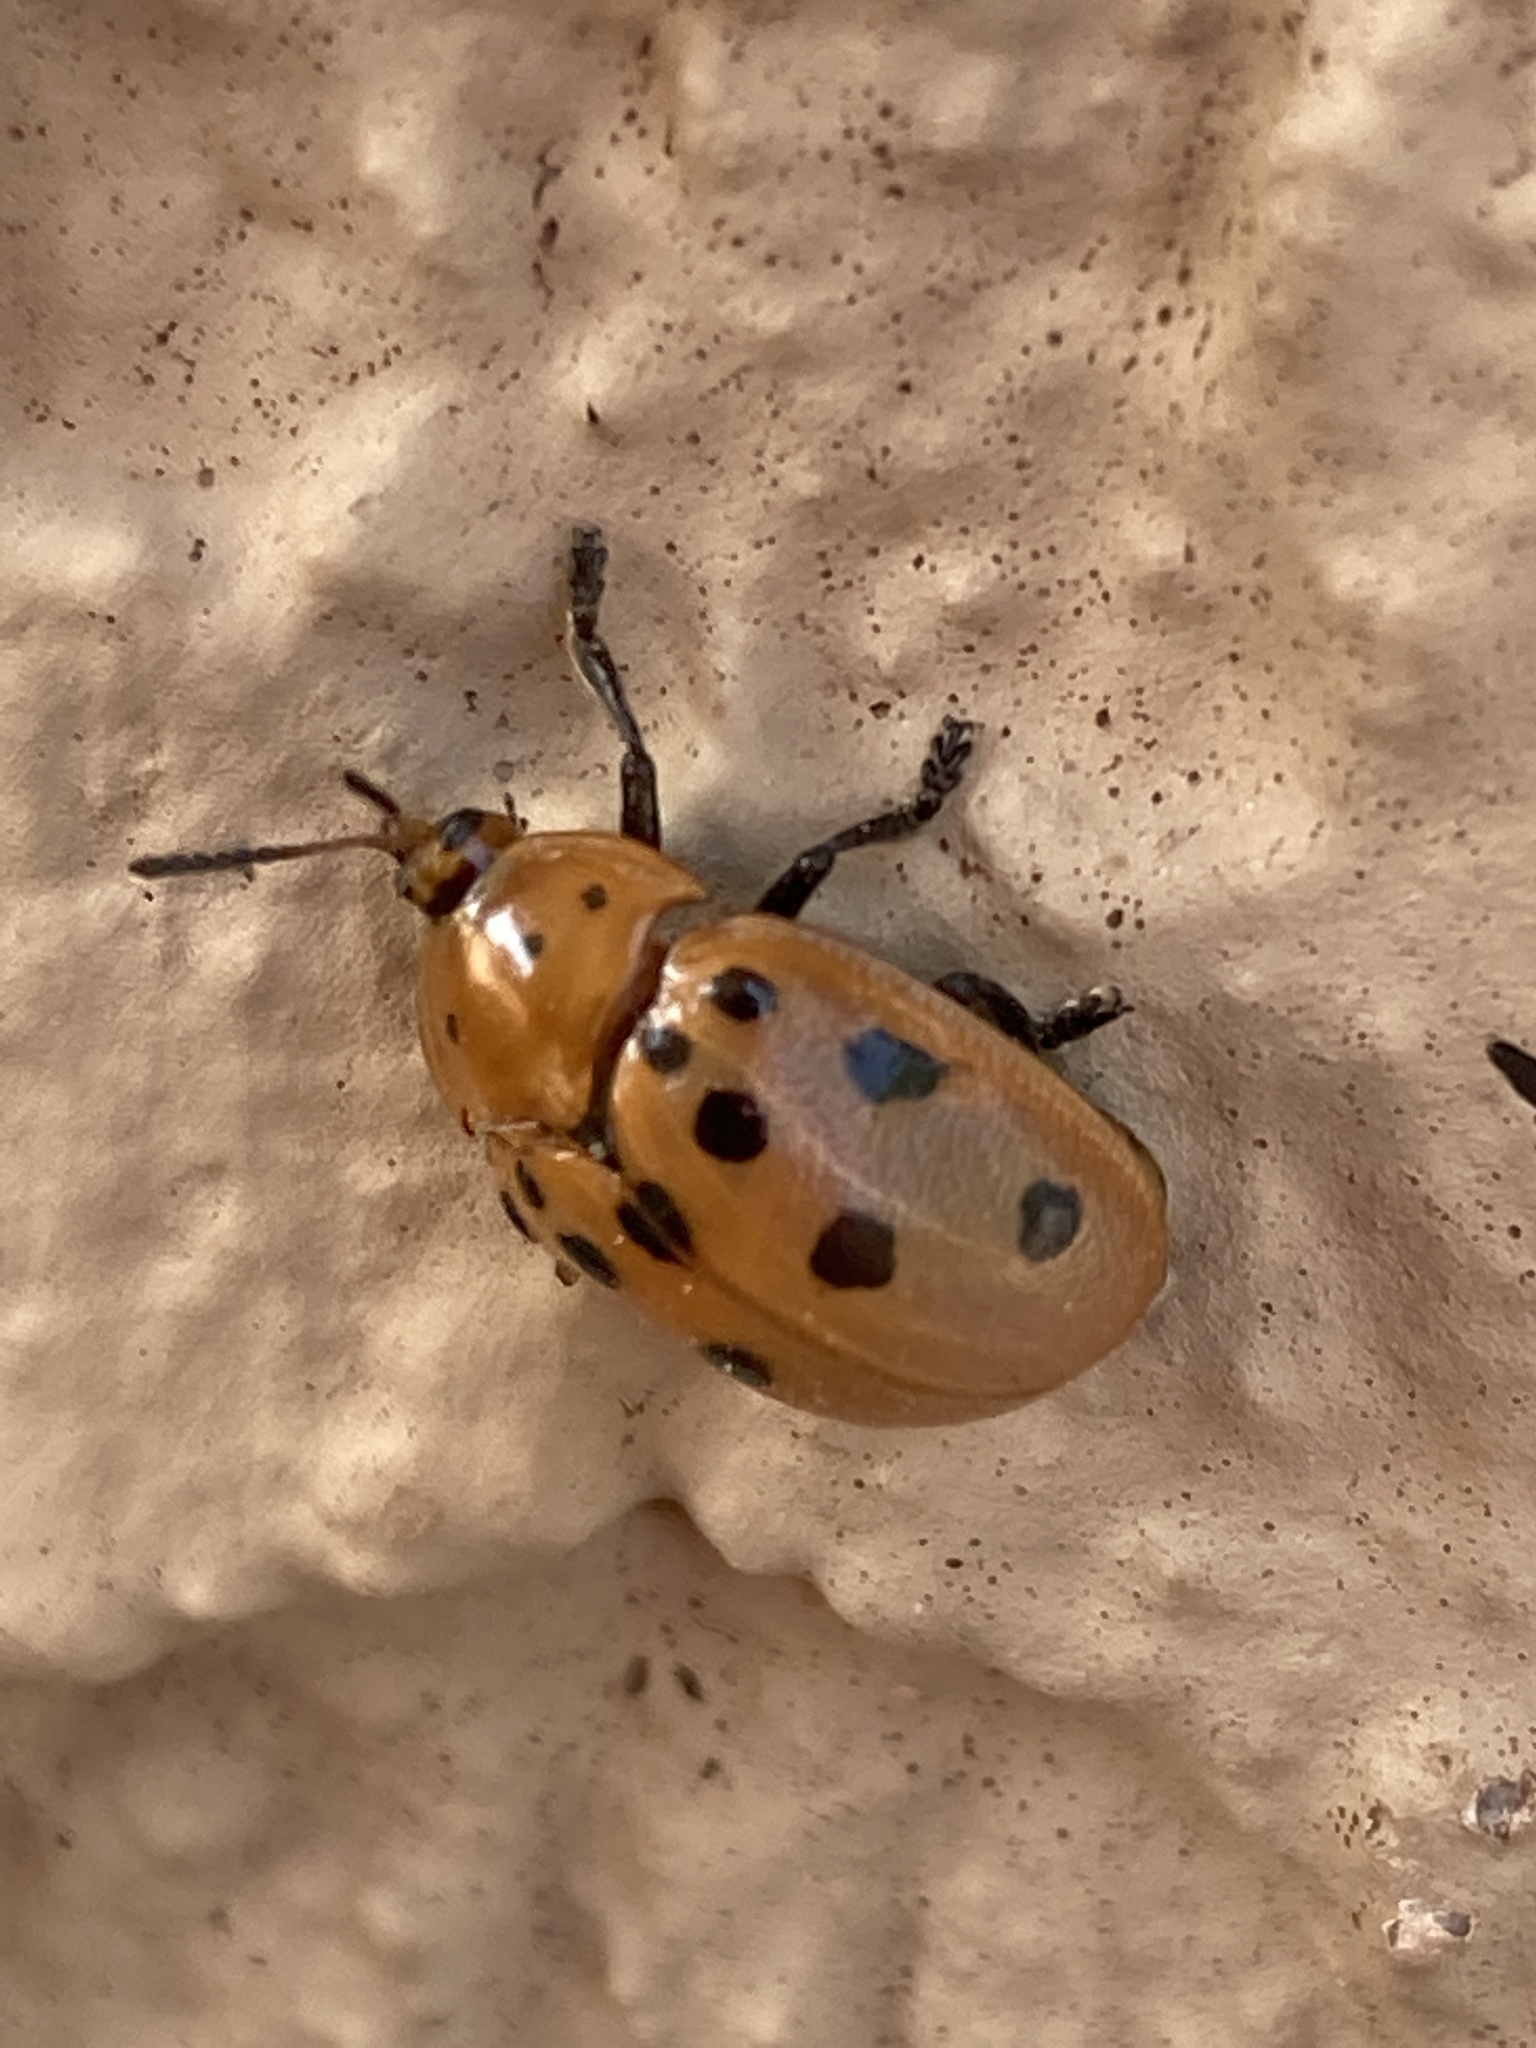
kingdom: Animalia
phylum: Arthropoda
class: Insecta
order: Coleoptera
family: Chrysomelidae
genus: Chelymorpha
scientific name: Chelymorpha cassidea
